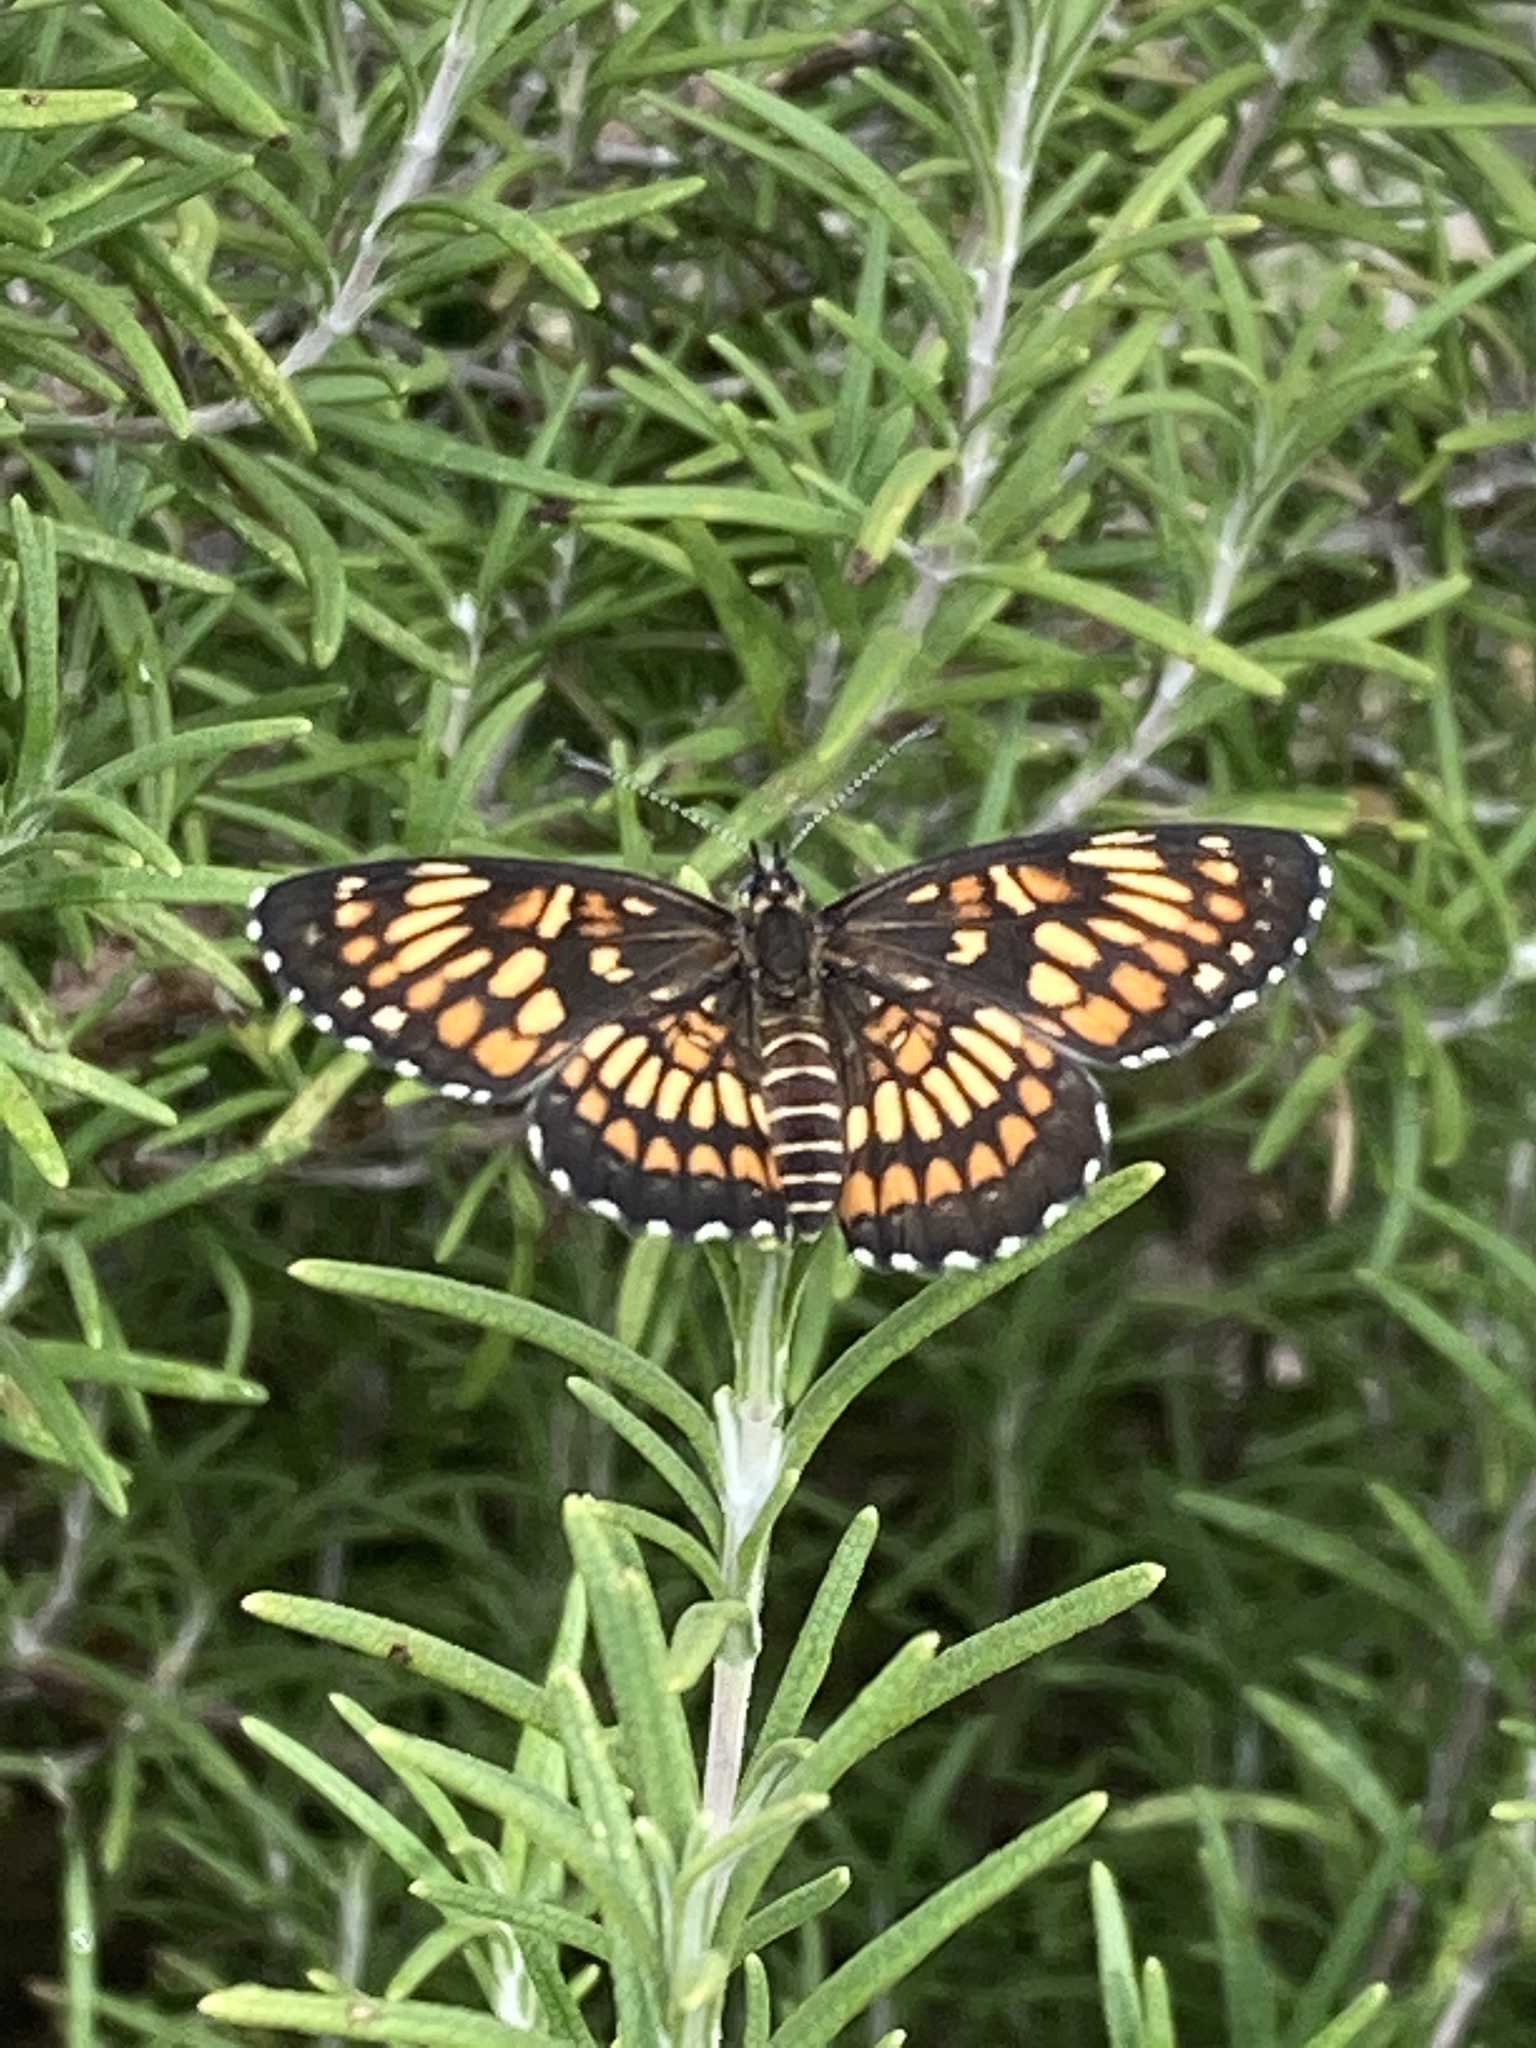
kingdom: Animalia
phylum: Arthropoda
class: Insecta
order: Lepidoptera
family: Nymphalidae
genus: Thessalia
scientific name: Thessalia theona
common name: Nymphalid moth
